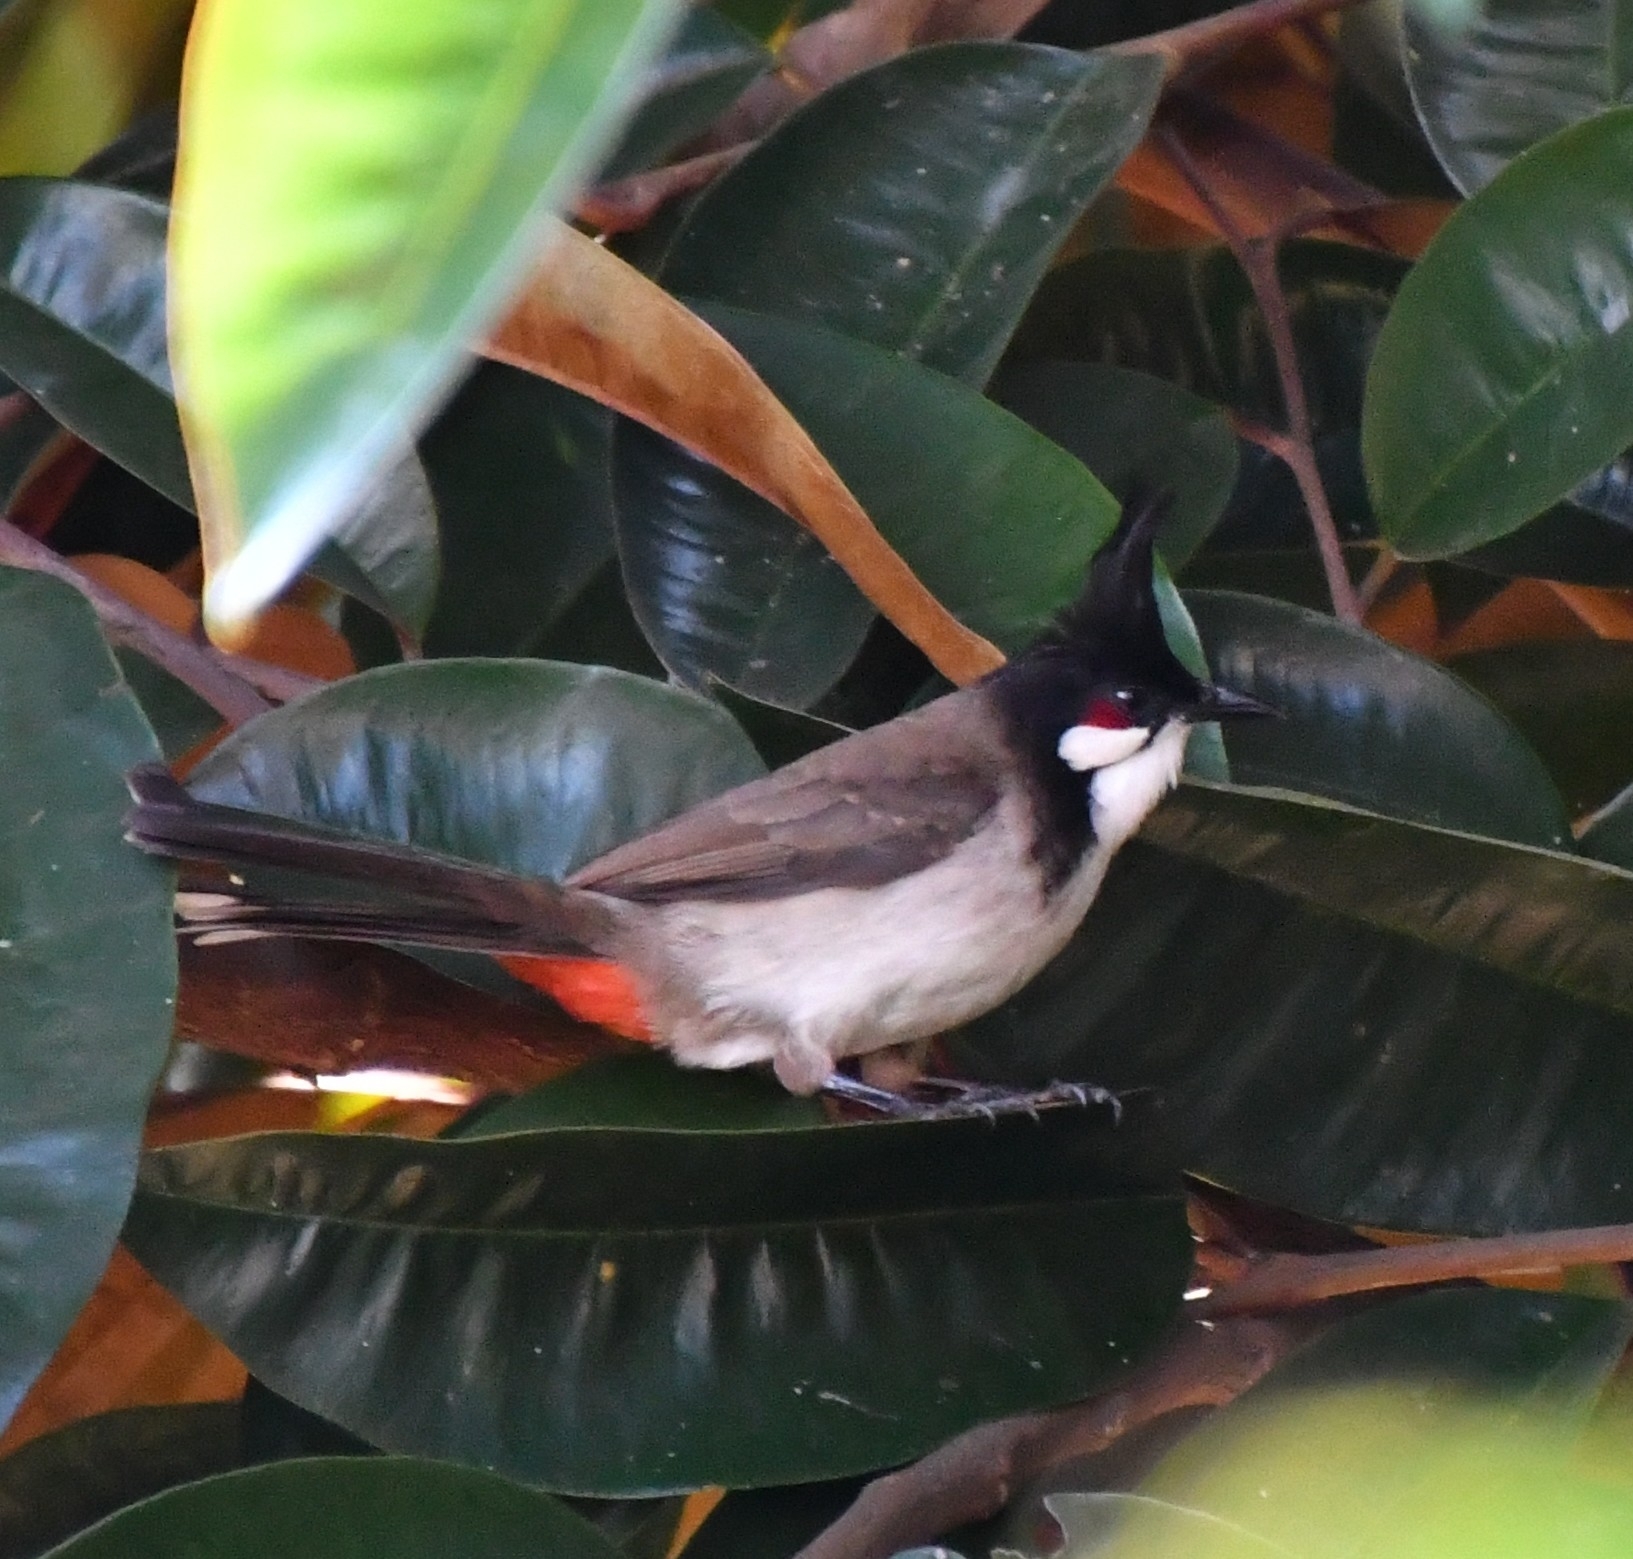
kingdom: Animalia
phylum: Chordata
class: Aves
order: Passeriformes
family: Pycnonotidae
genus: Pycnonotus
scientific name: Pycnonotus jocosus
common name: Red-whiskered bulbul
